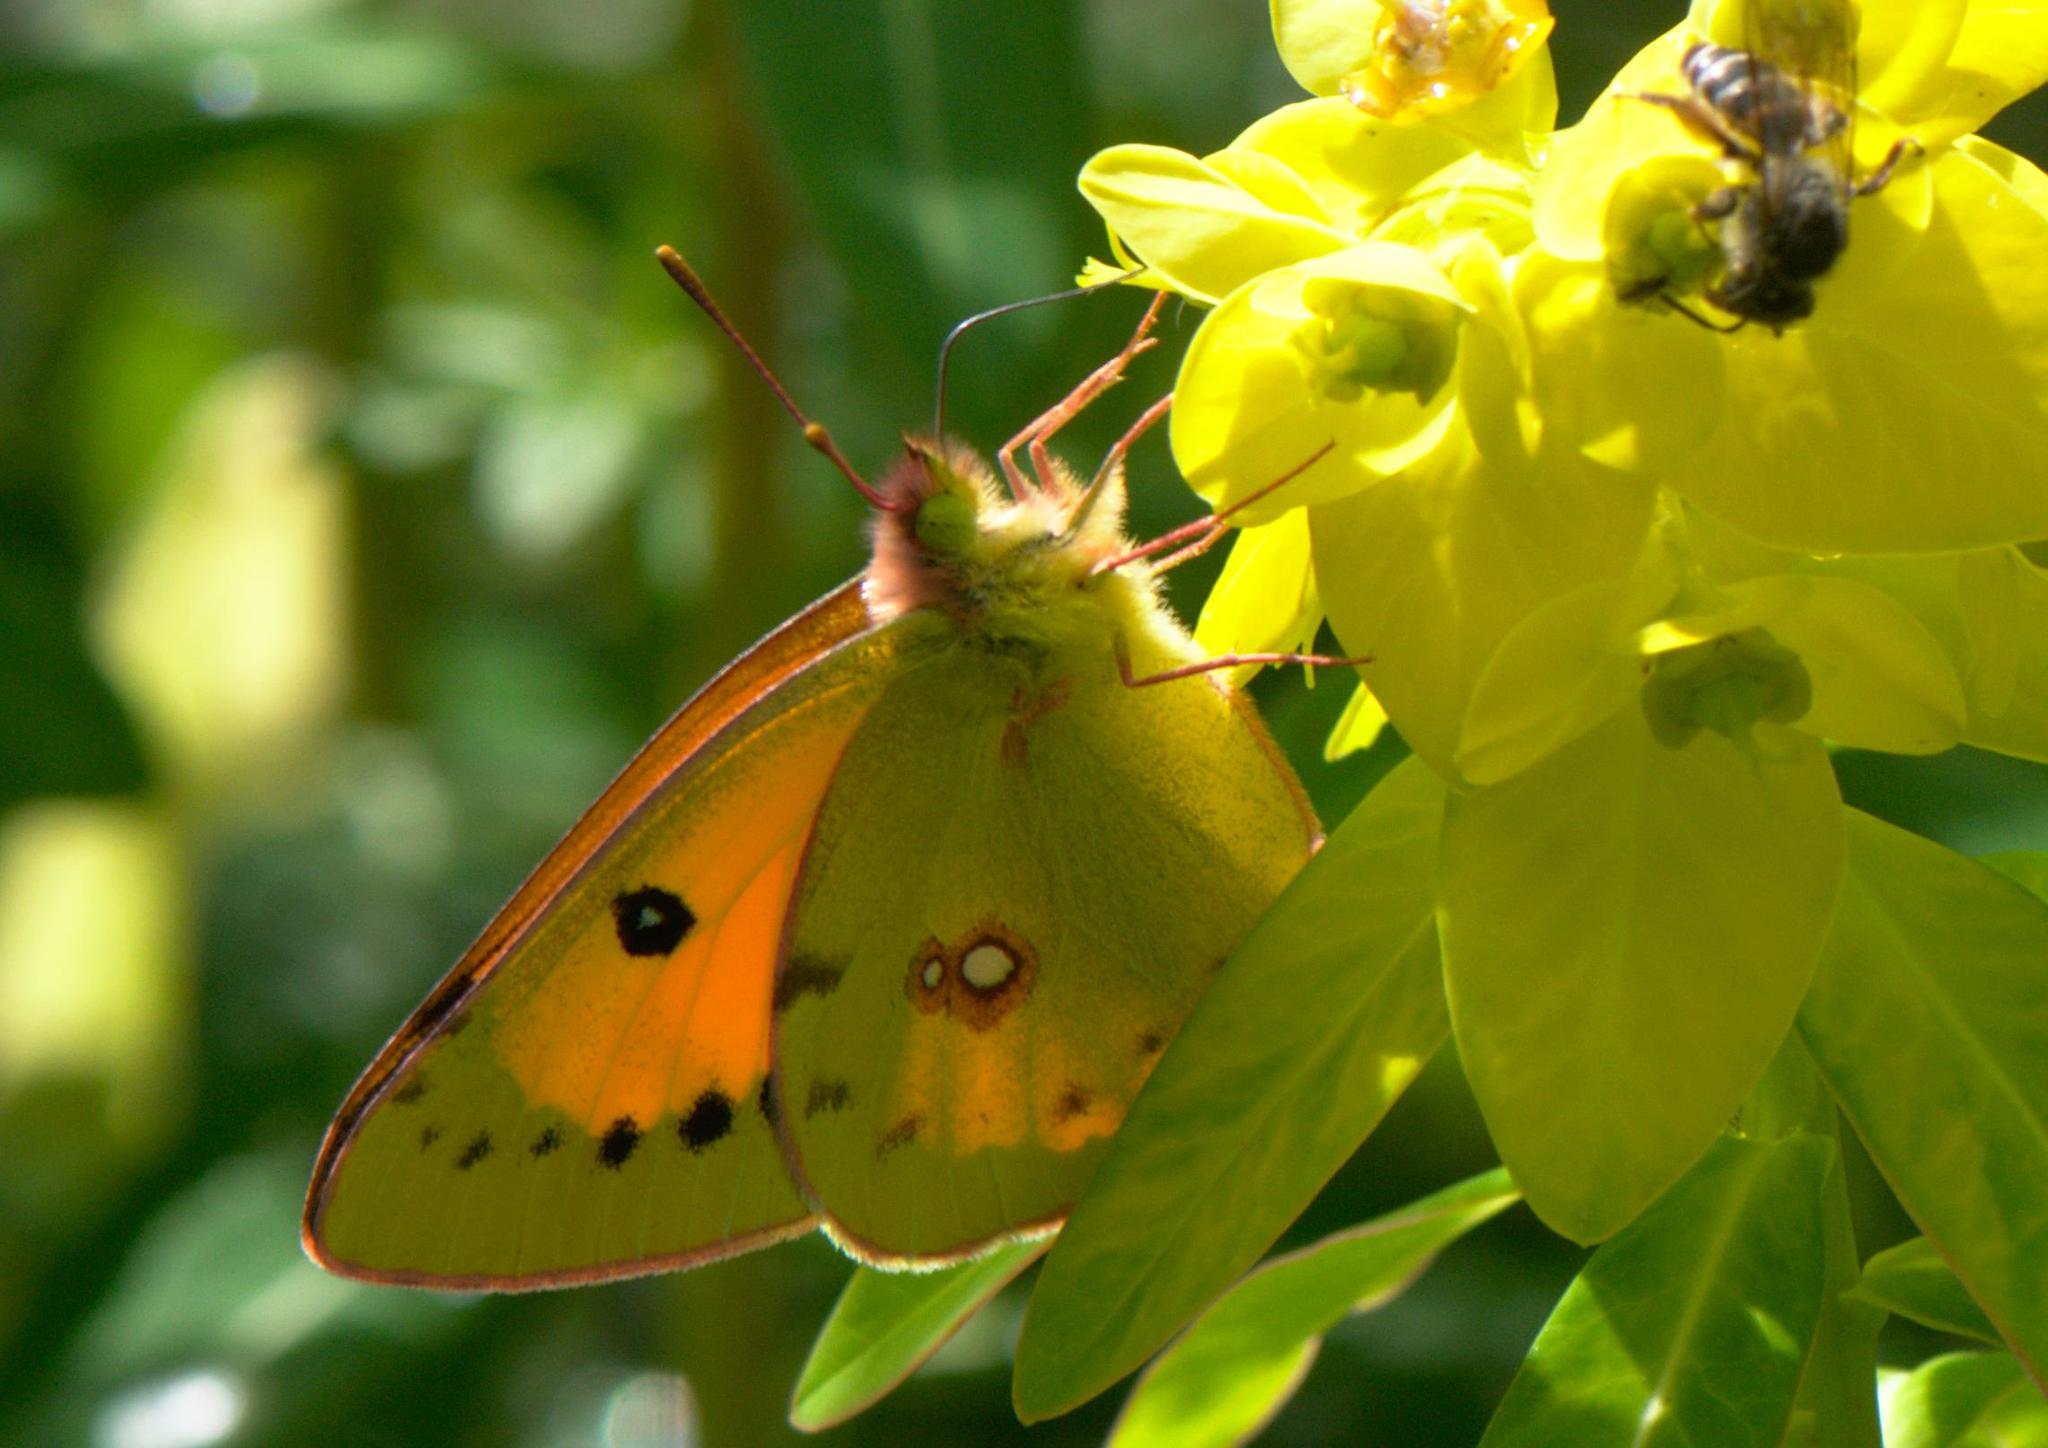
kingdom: Animalia
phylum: Arthropoda
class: Insecta
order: Lepidoptera
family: Pieridae
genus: Colias
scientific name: Colias fieldii
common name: Dark clouded yellow
